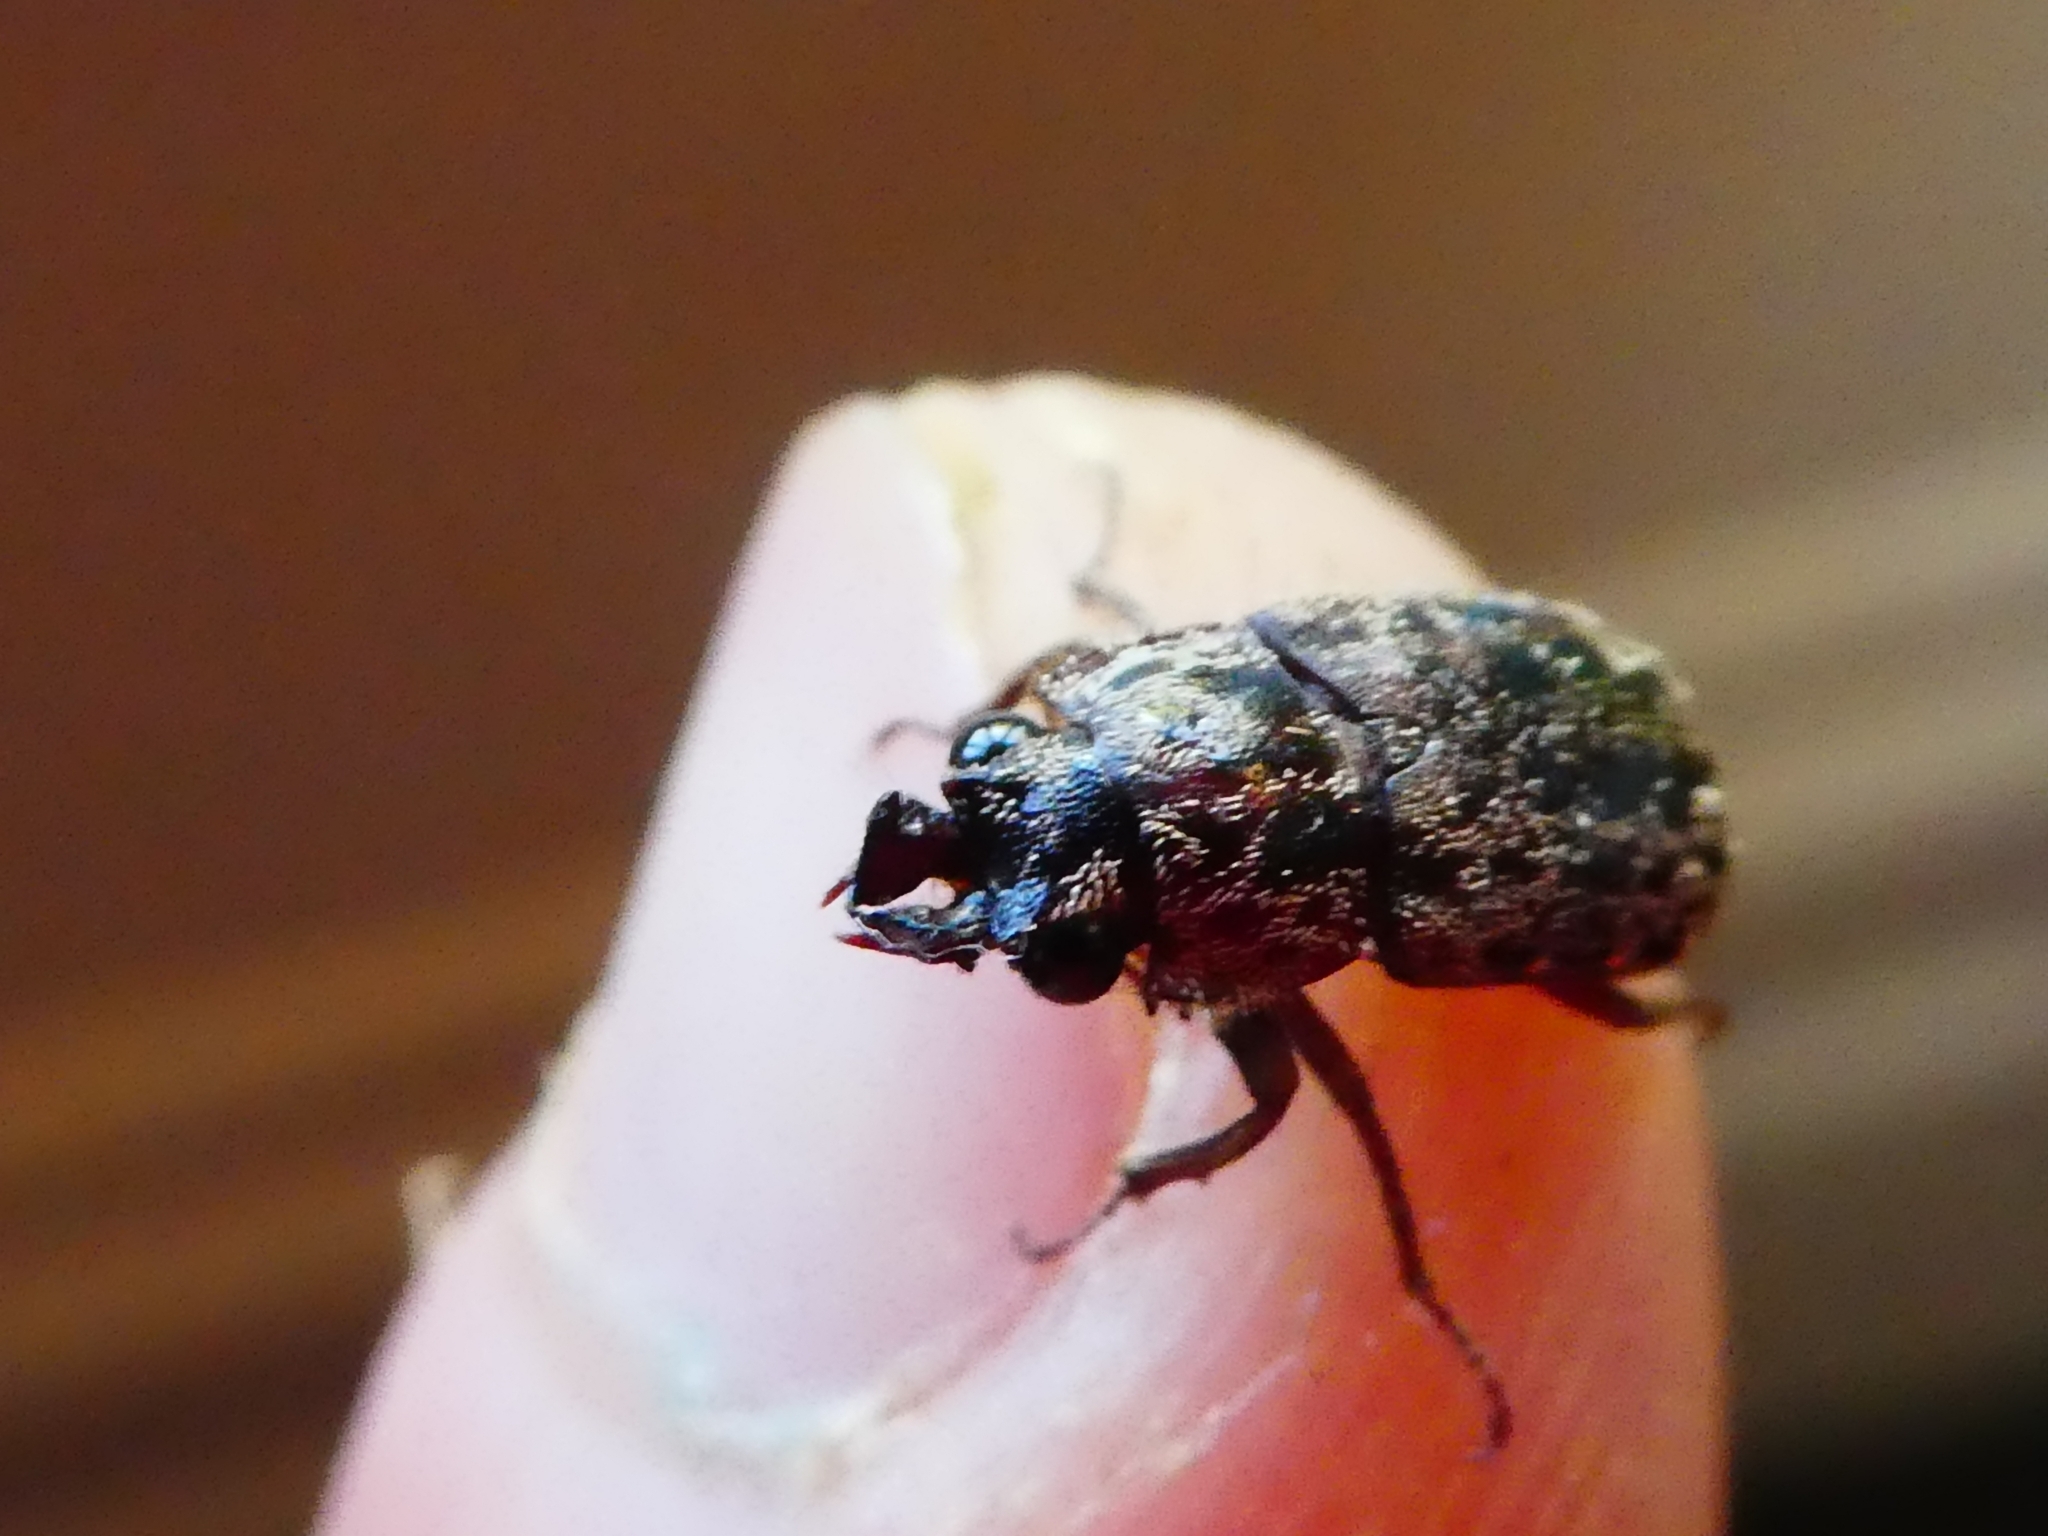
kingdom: Animalia
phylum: Arthropoda
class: Insecta
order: Coleoptera
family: Lucanidae
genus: Mitophyllus
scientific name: Mitophyllus irroratus
